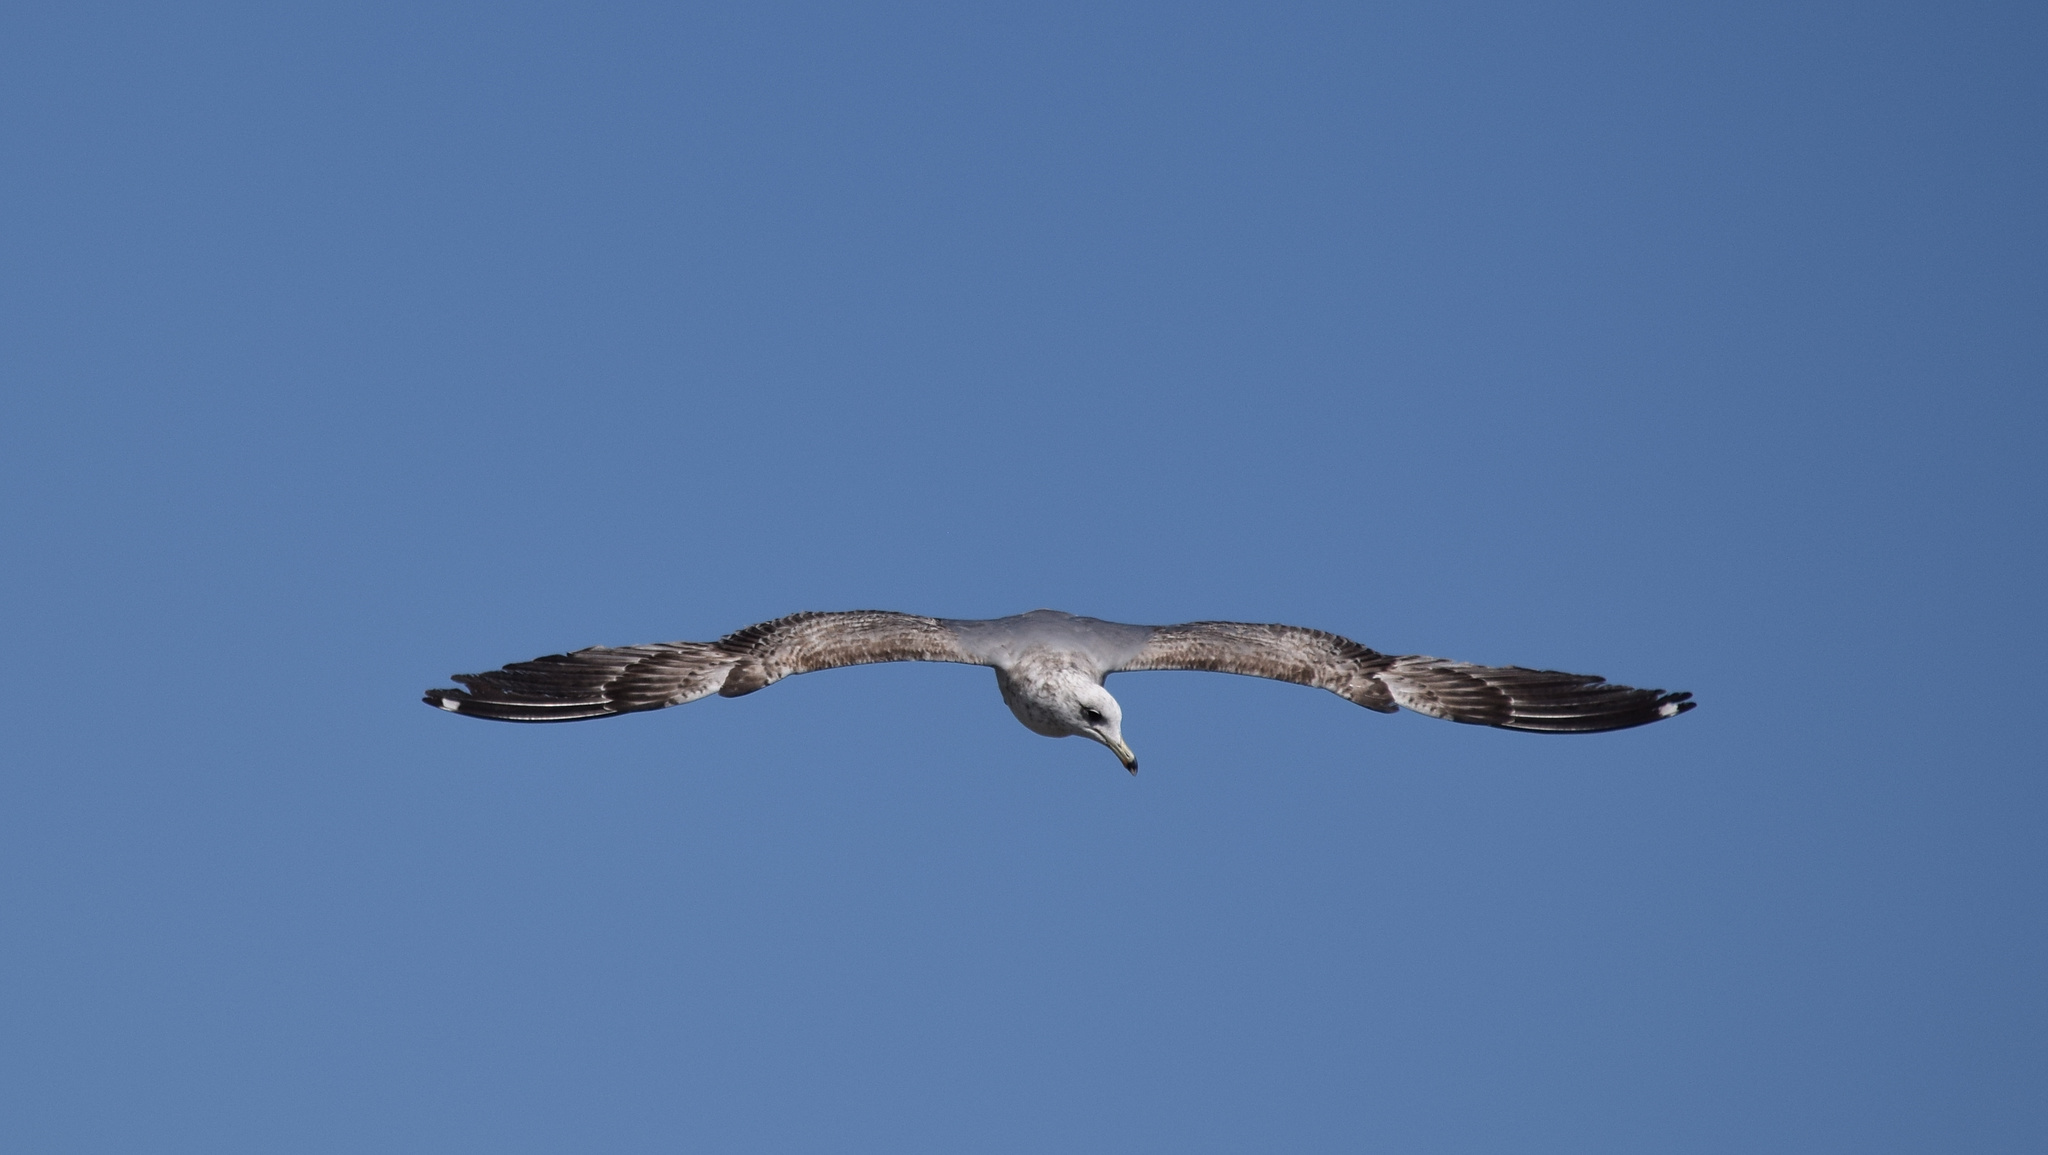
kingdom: Animalia
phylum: Chordata
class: Aves
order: Charadriiformes
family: Laridae
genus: Larus
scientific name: Larus californicus
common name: California gull
